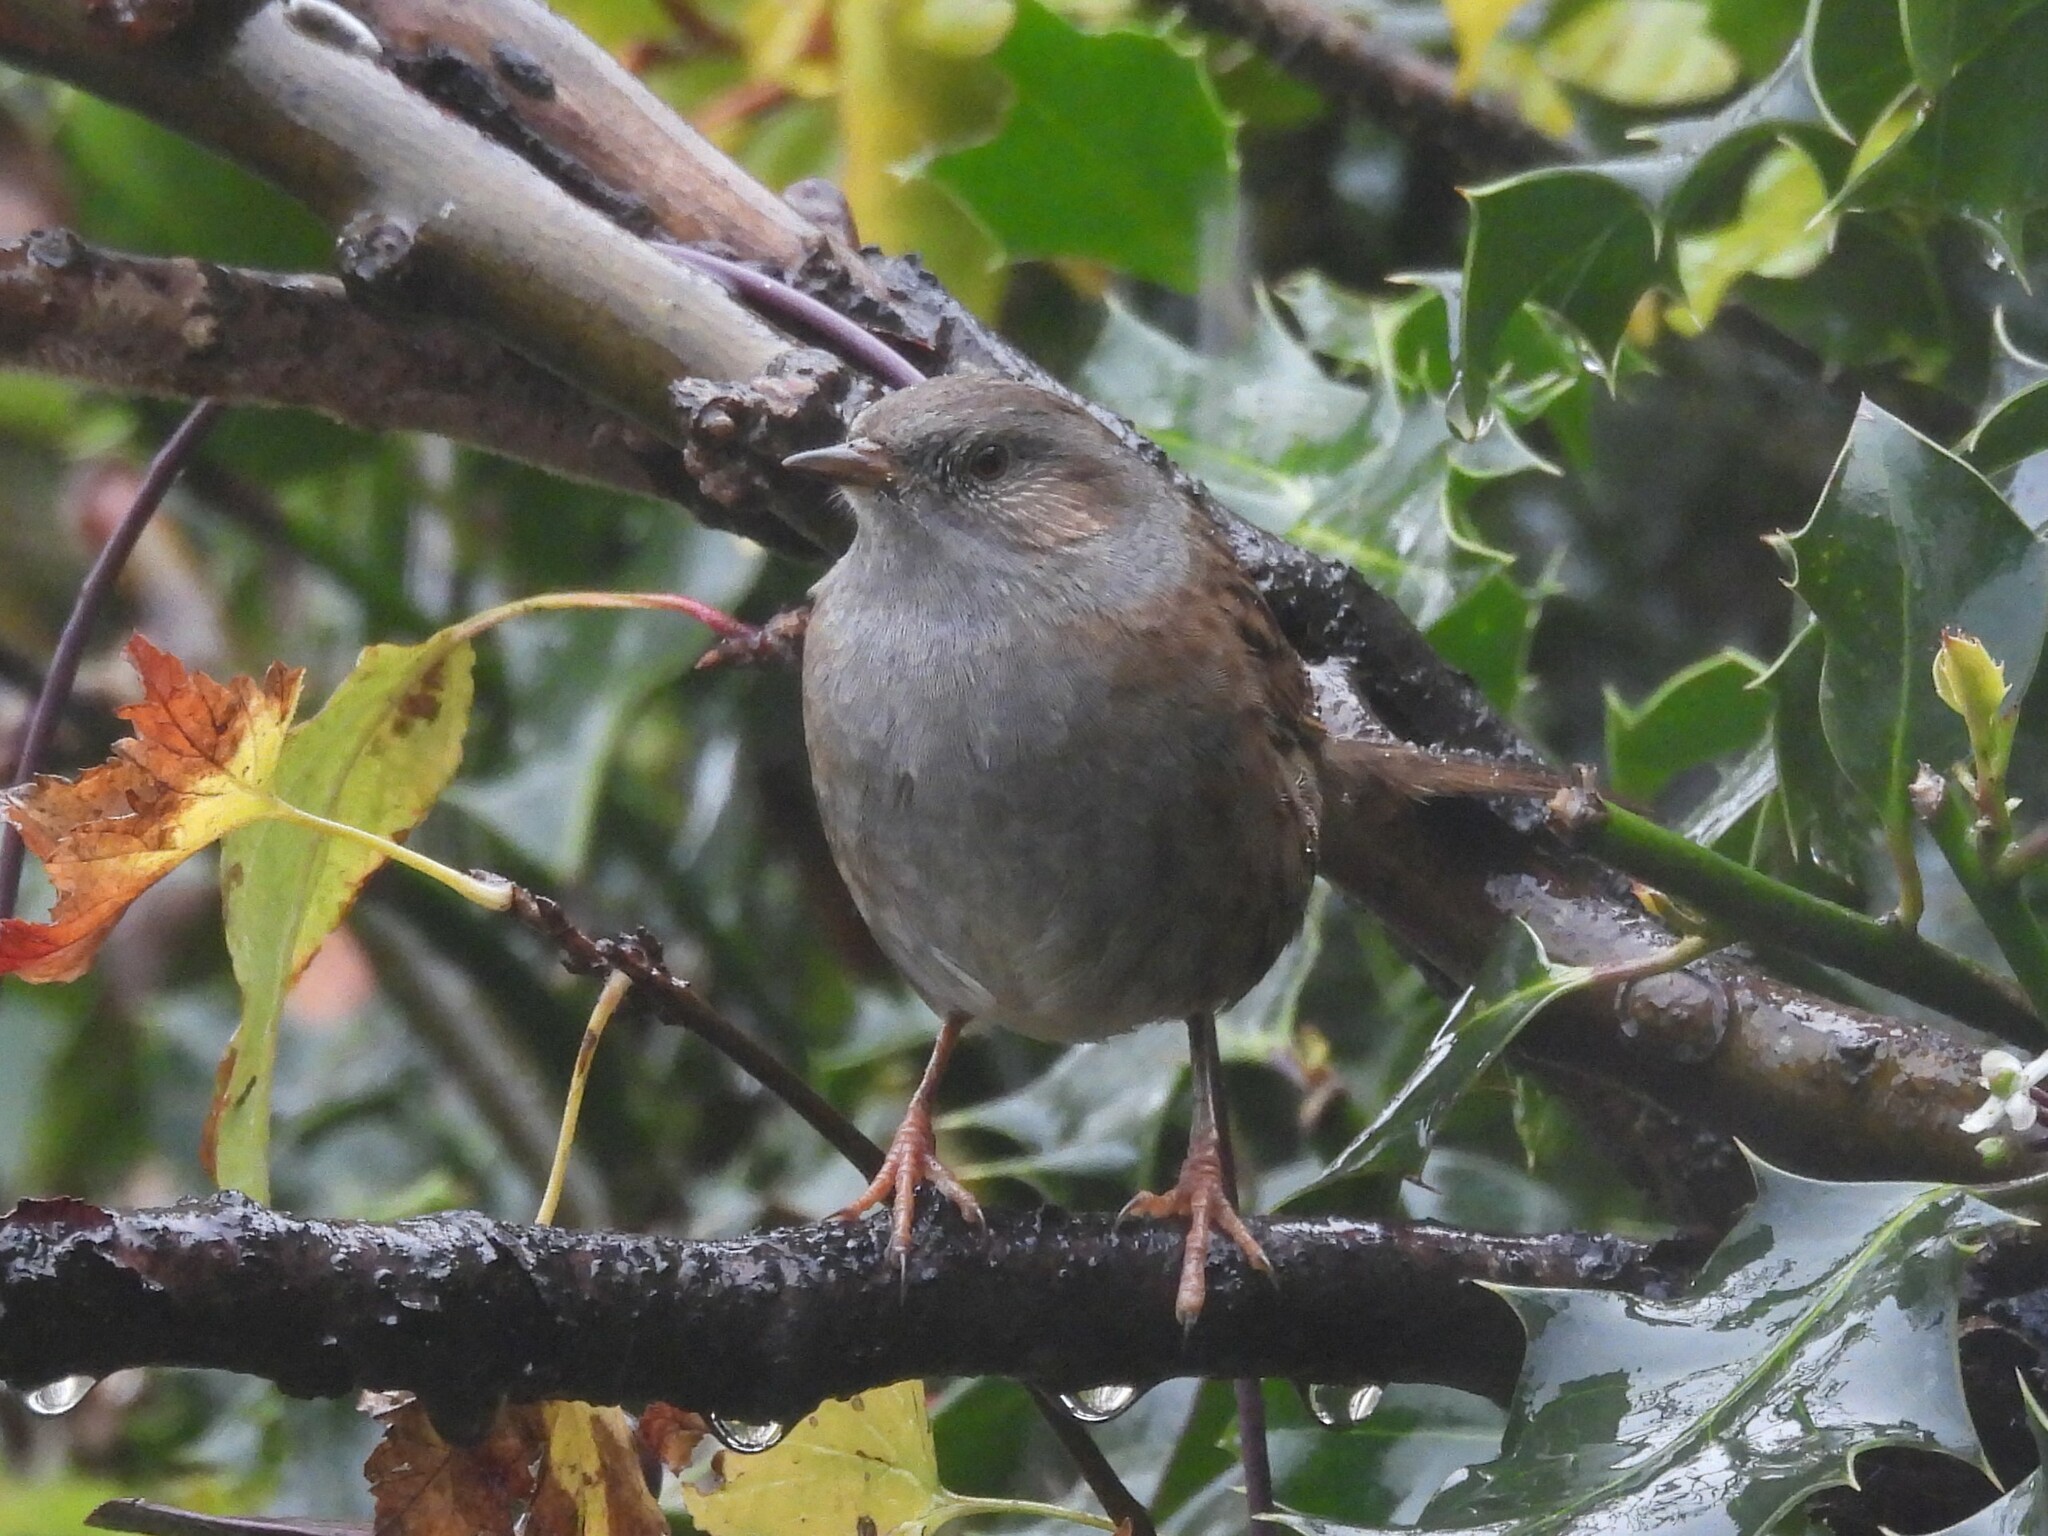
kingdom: Animalia
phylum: Chordata
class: Aves
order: Passeriformes
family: Prunellidae
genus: Prunella
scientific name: Prunella modularis
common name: Dunnock
